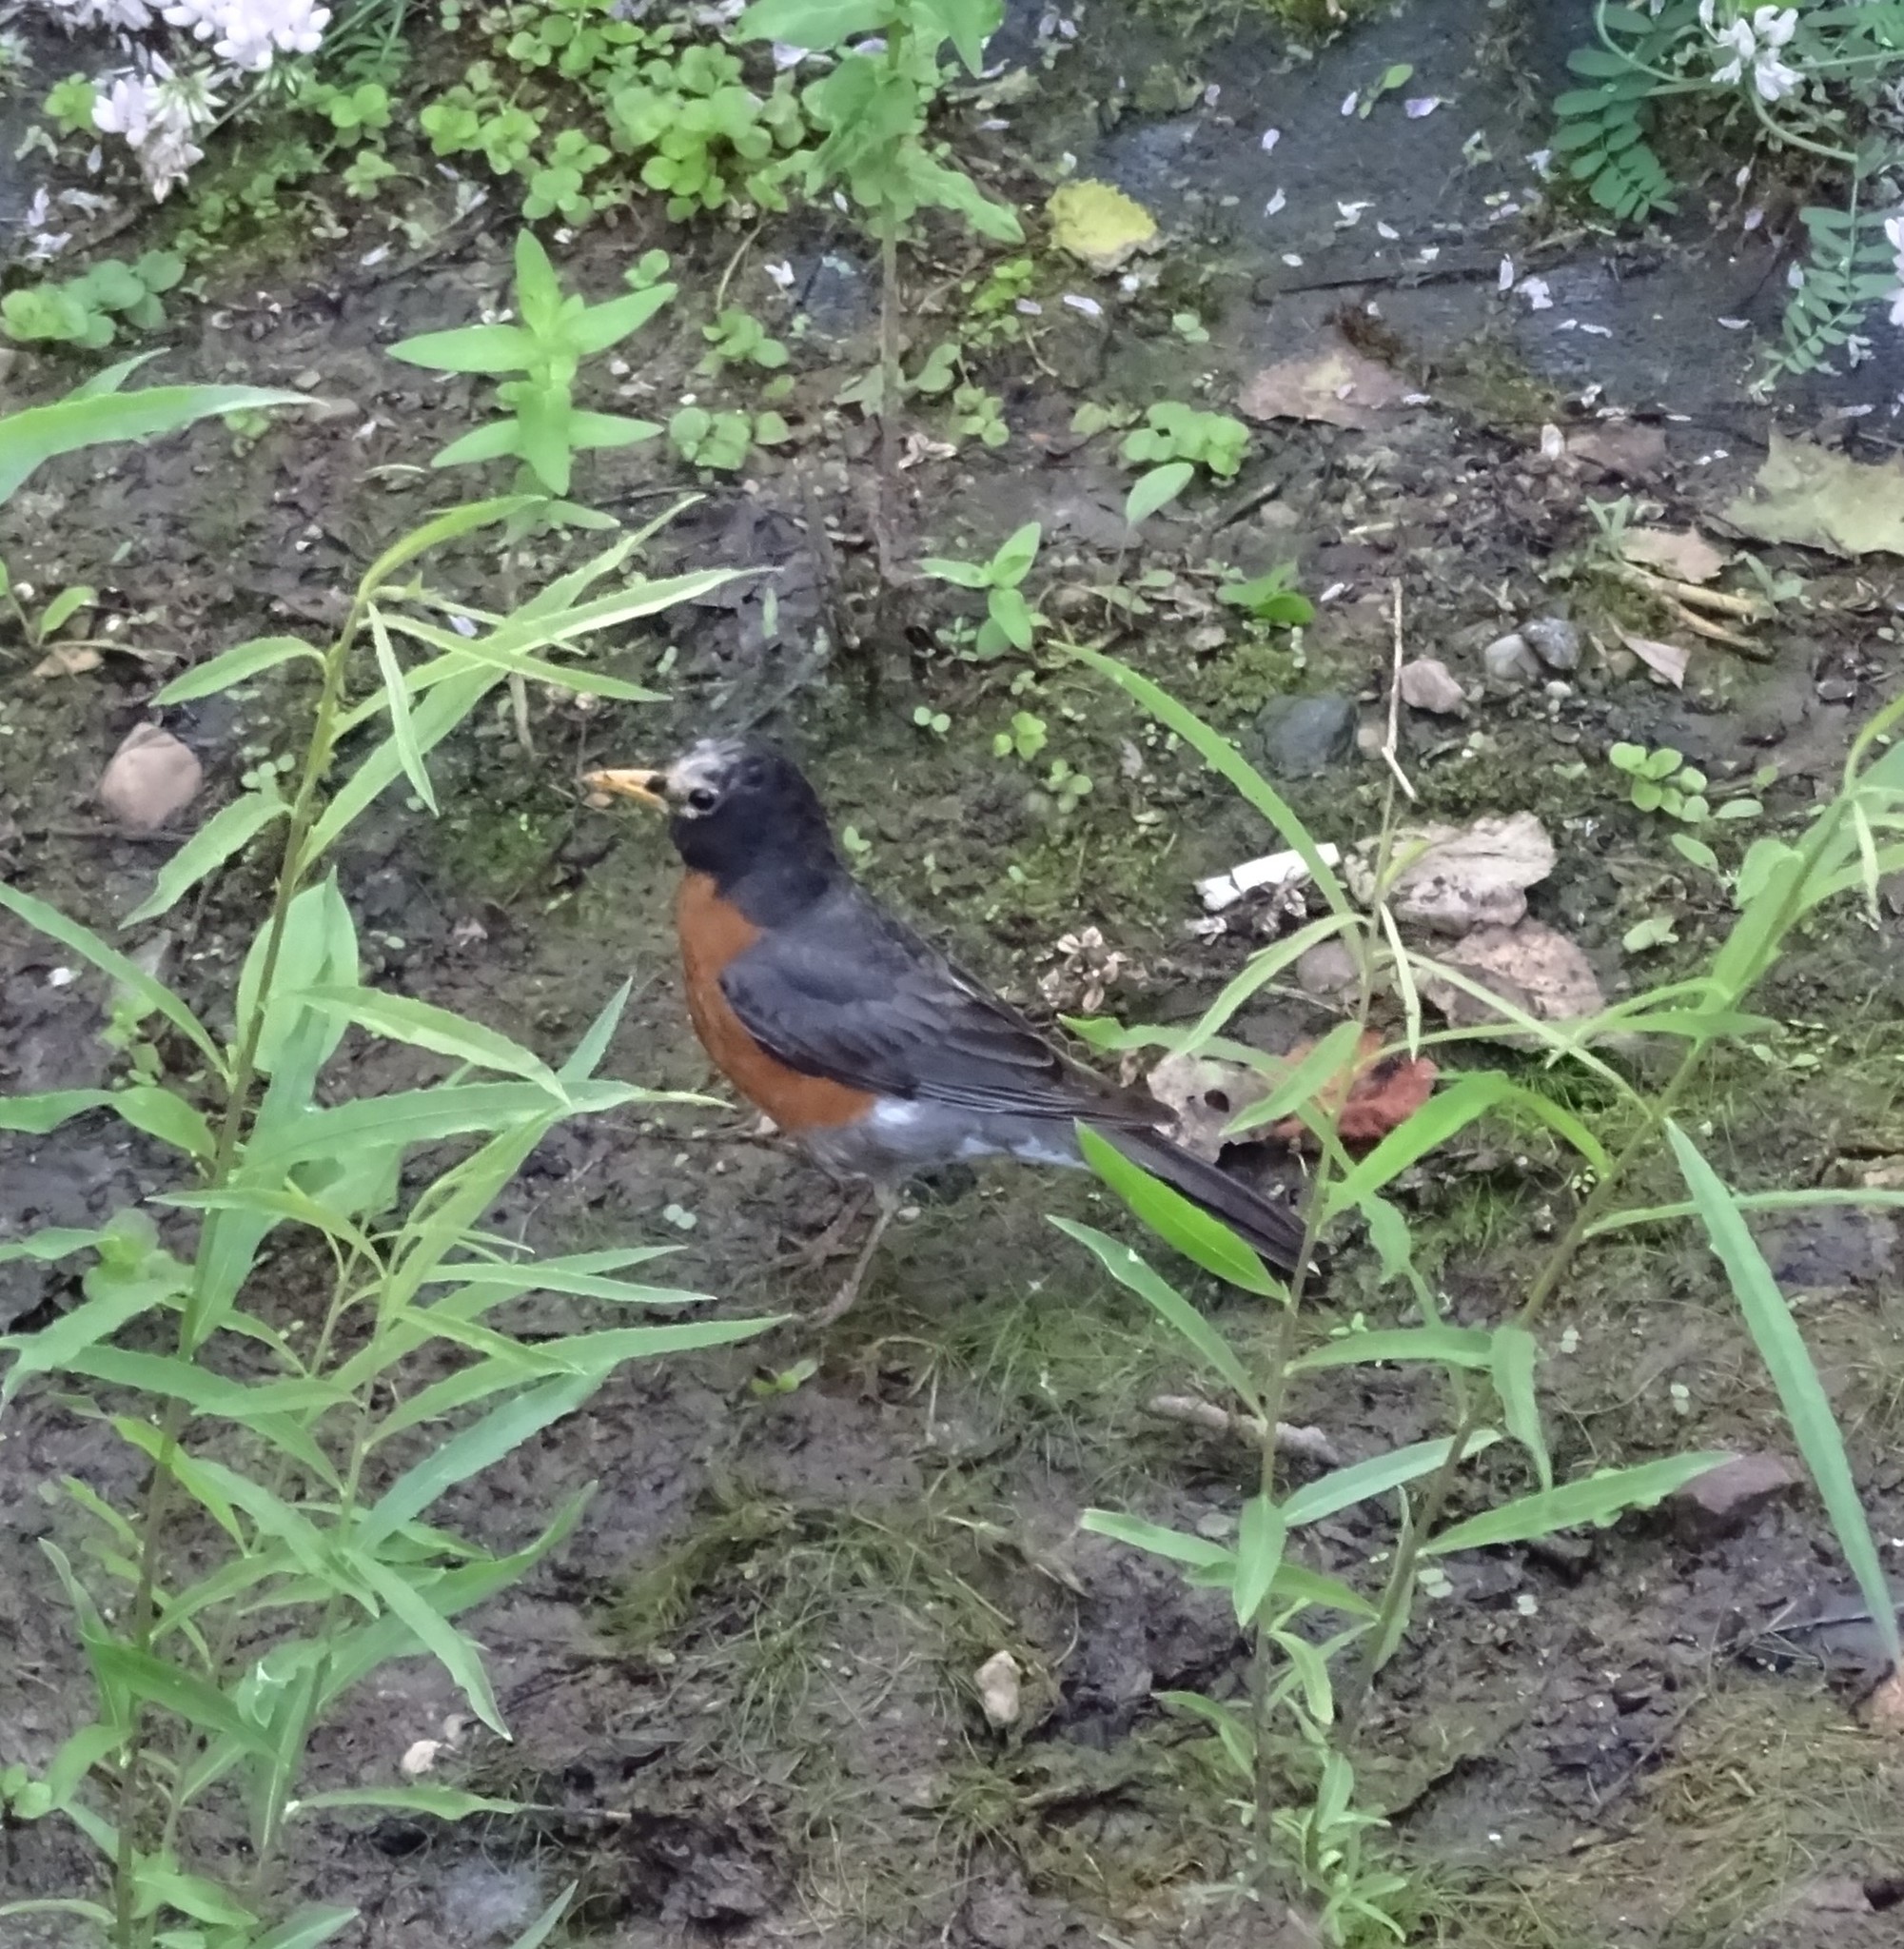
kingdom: Animalia
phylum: Chordata
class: Aves
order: Passeriformes
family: Turdidae
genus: Turdus
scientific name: Turdus migratorius
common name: American robin
